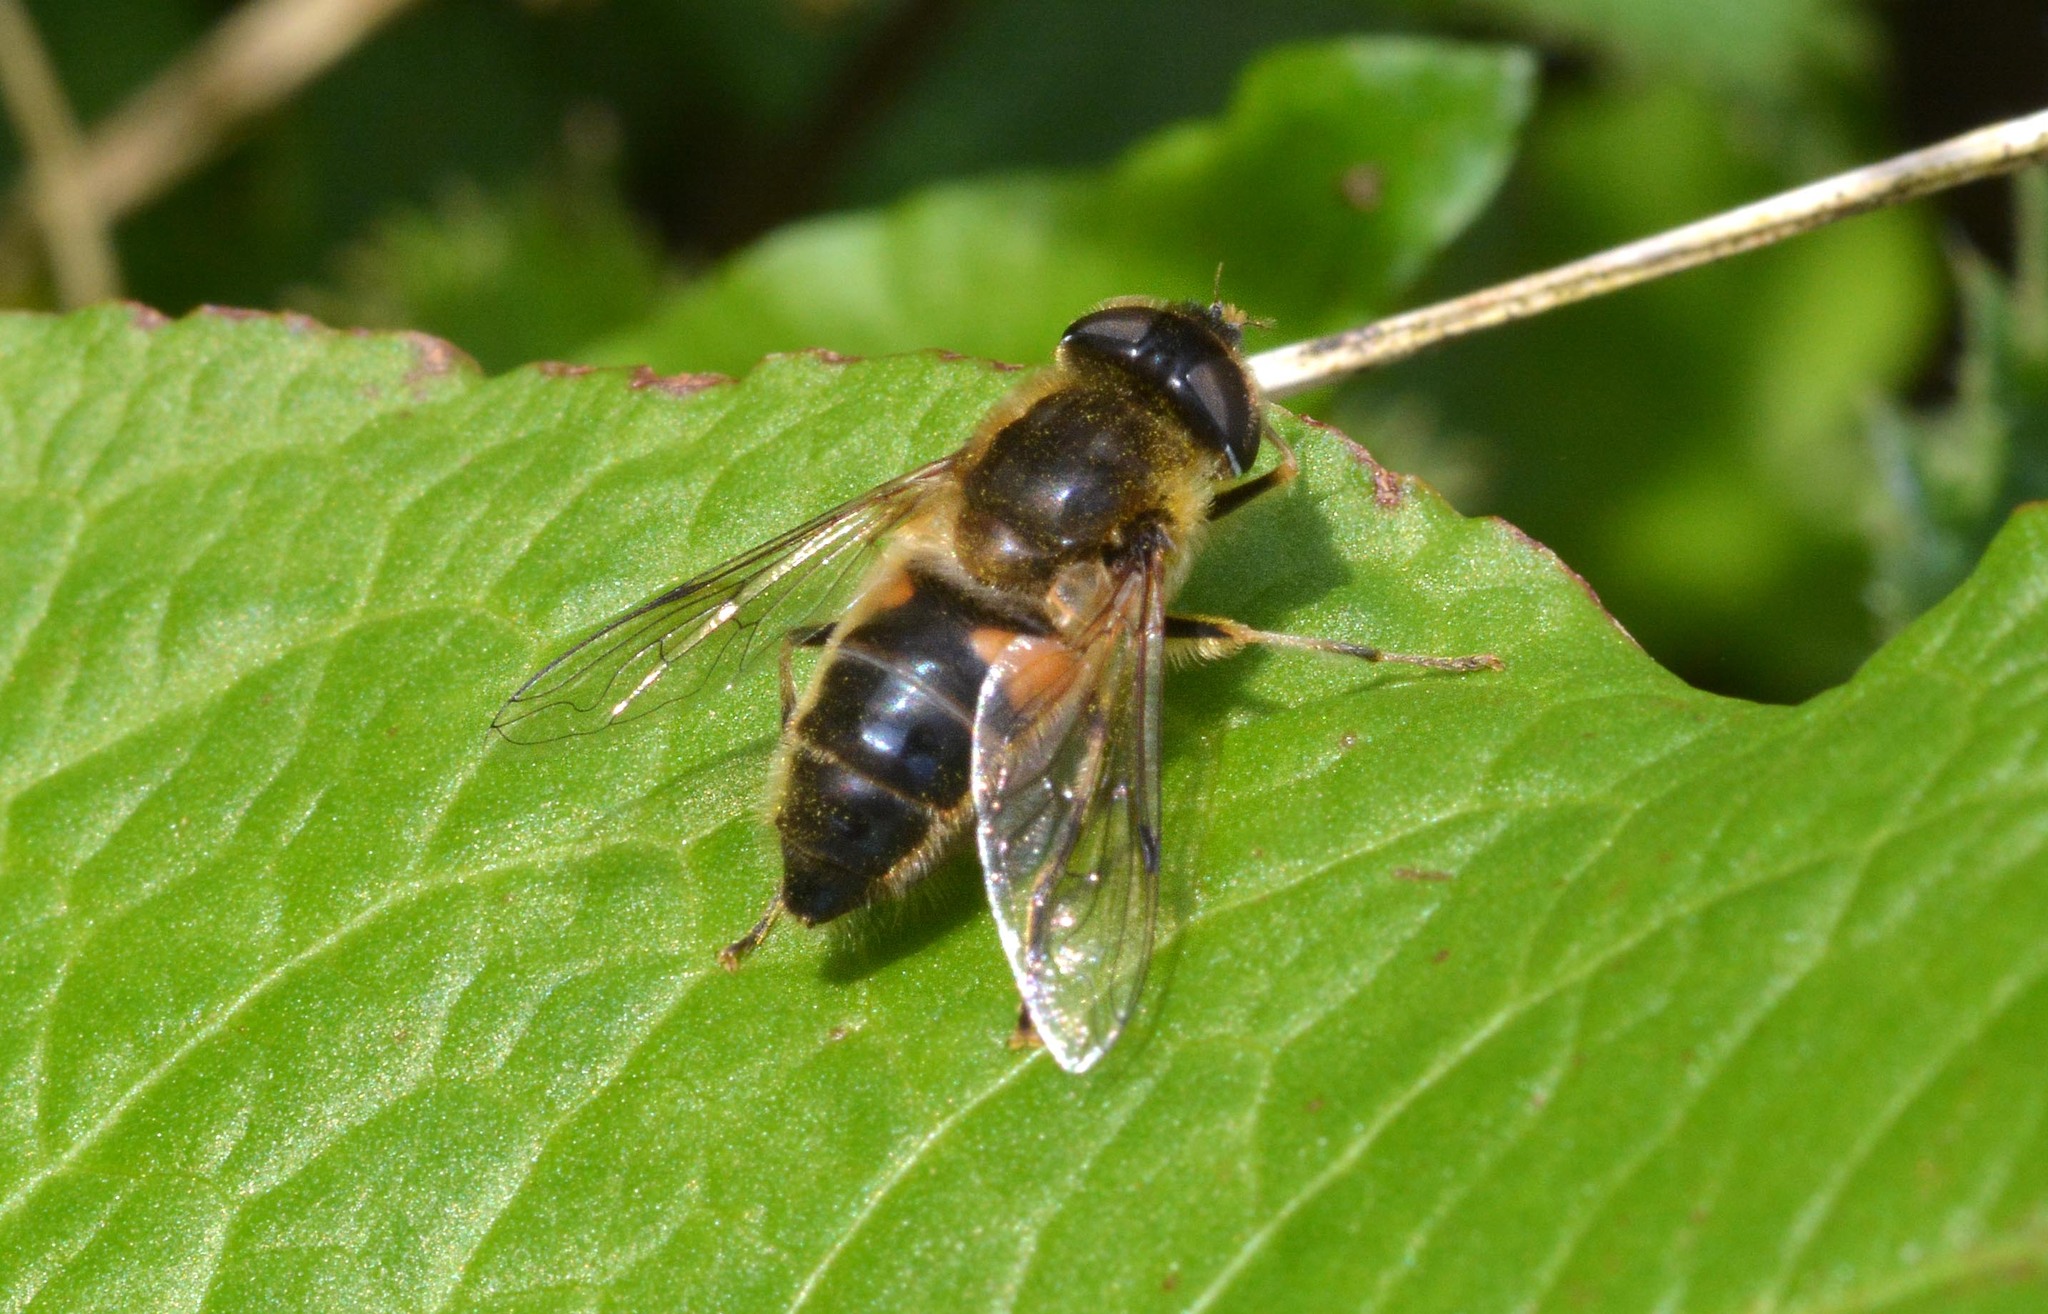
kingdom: Animalia
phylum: Arthropoda
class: Insecta
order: Diptera
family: Syrphidae
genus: Eristalis
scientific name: Eristalis pertinax
